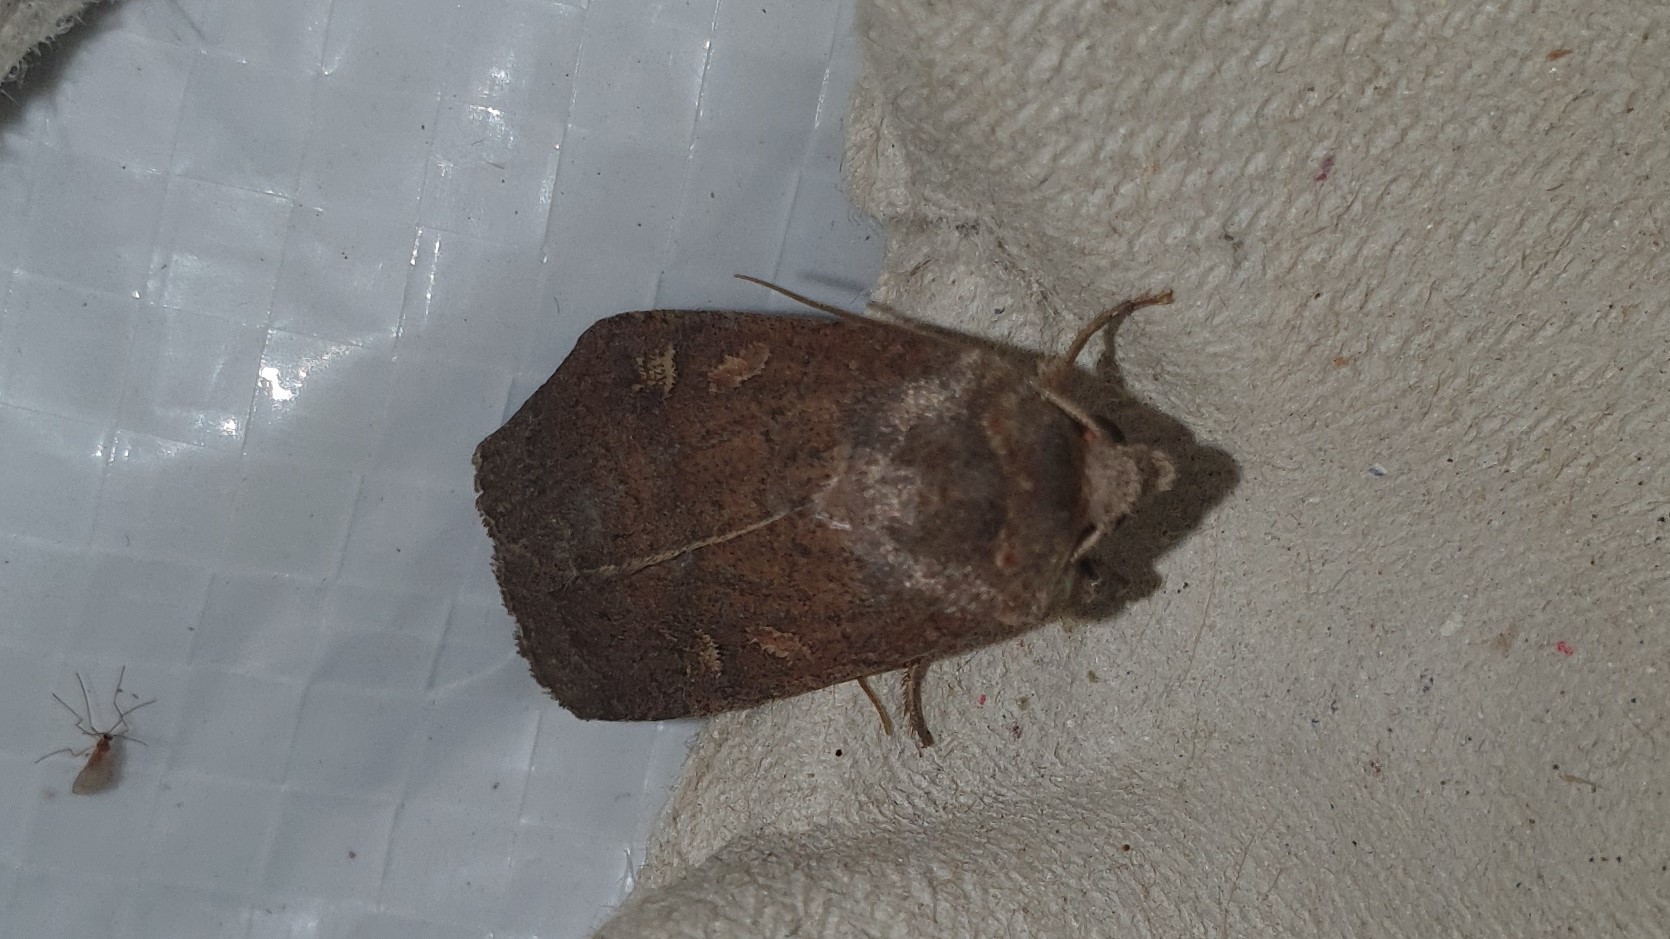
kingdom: Animalia
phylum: Arthropoda
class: Insecta
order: Lepidoptera
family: Noctuidae
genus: Xestia
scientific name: Xestia xanthographa
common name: Square-spot rustic
